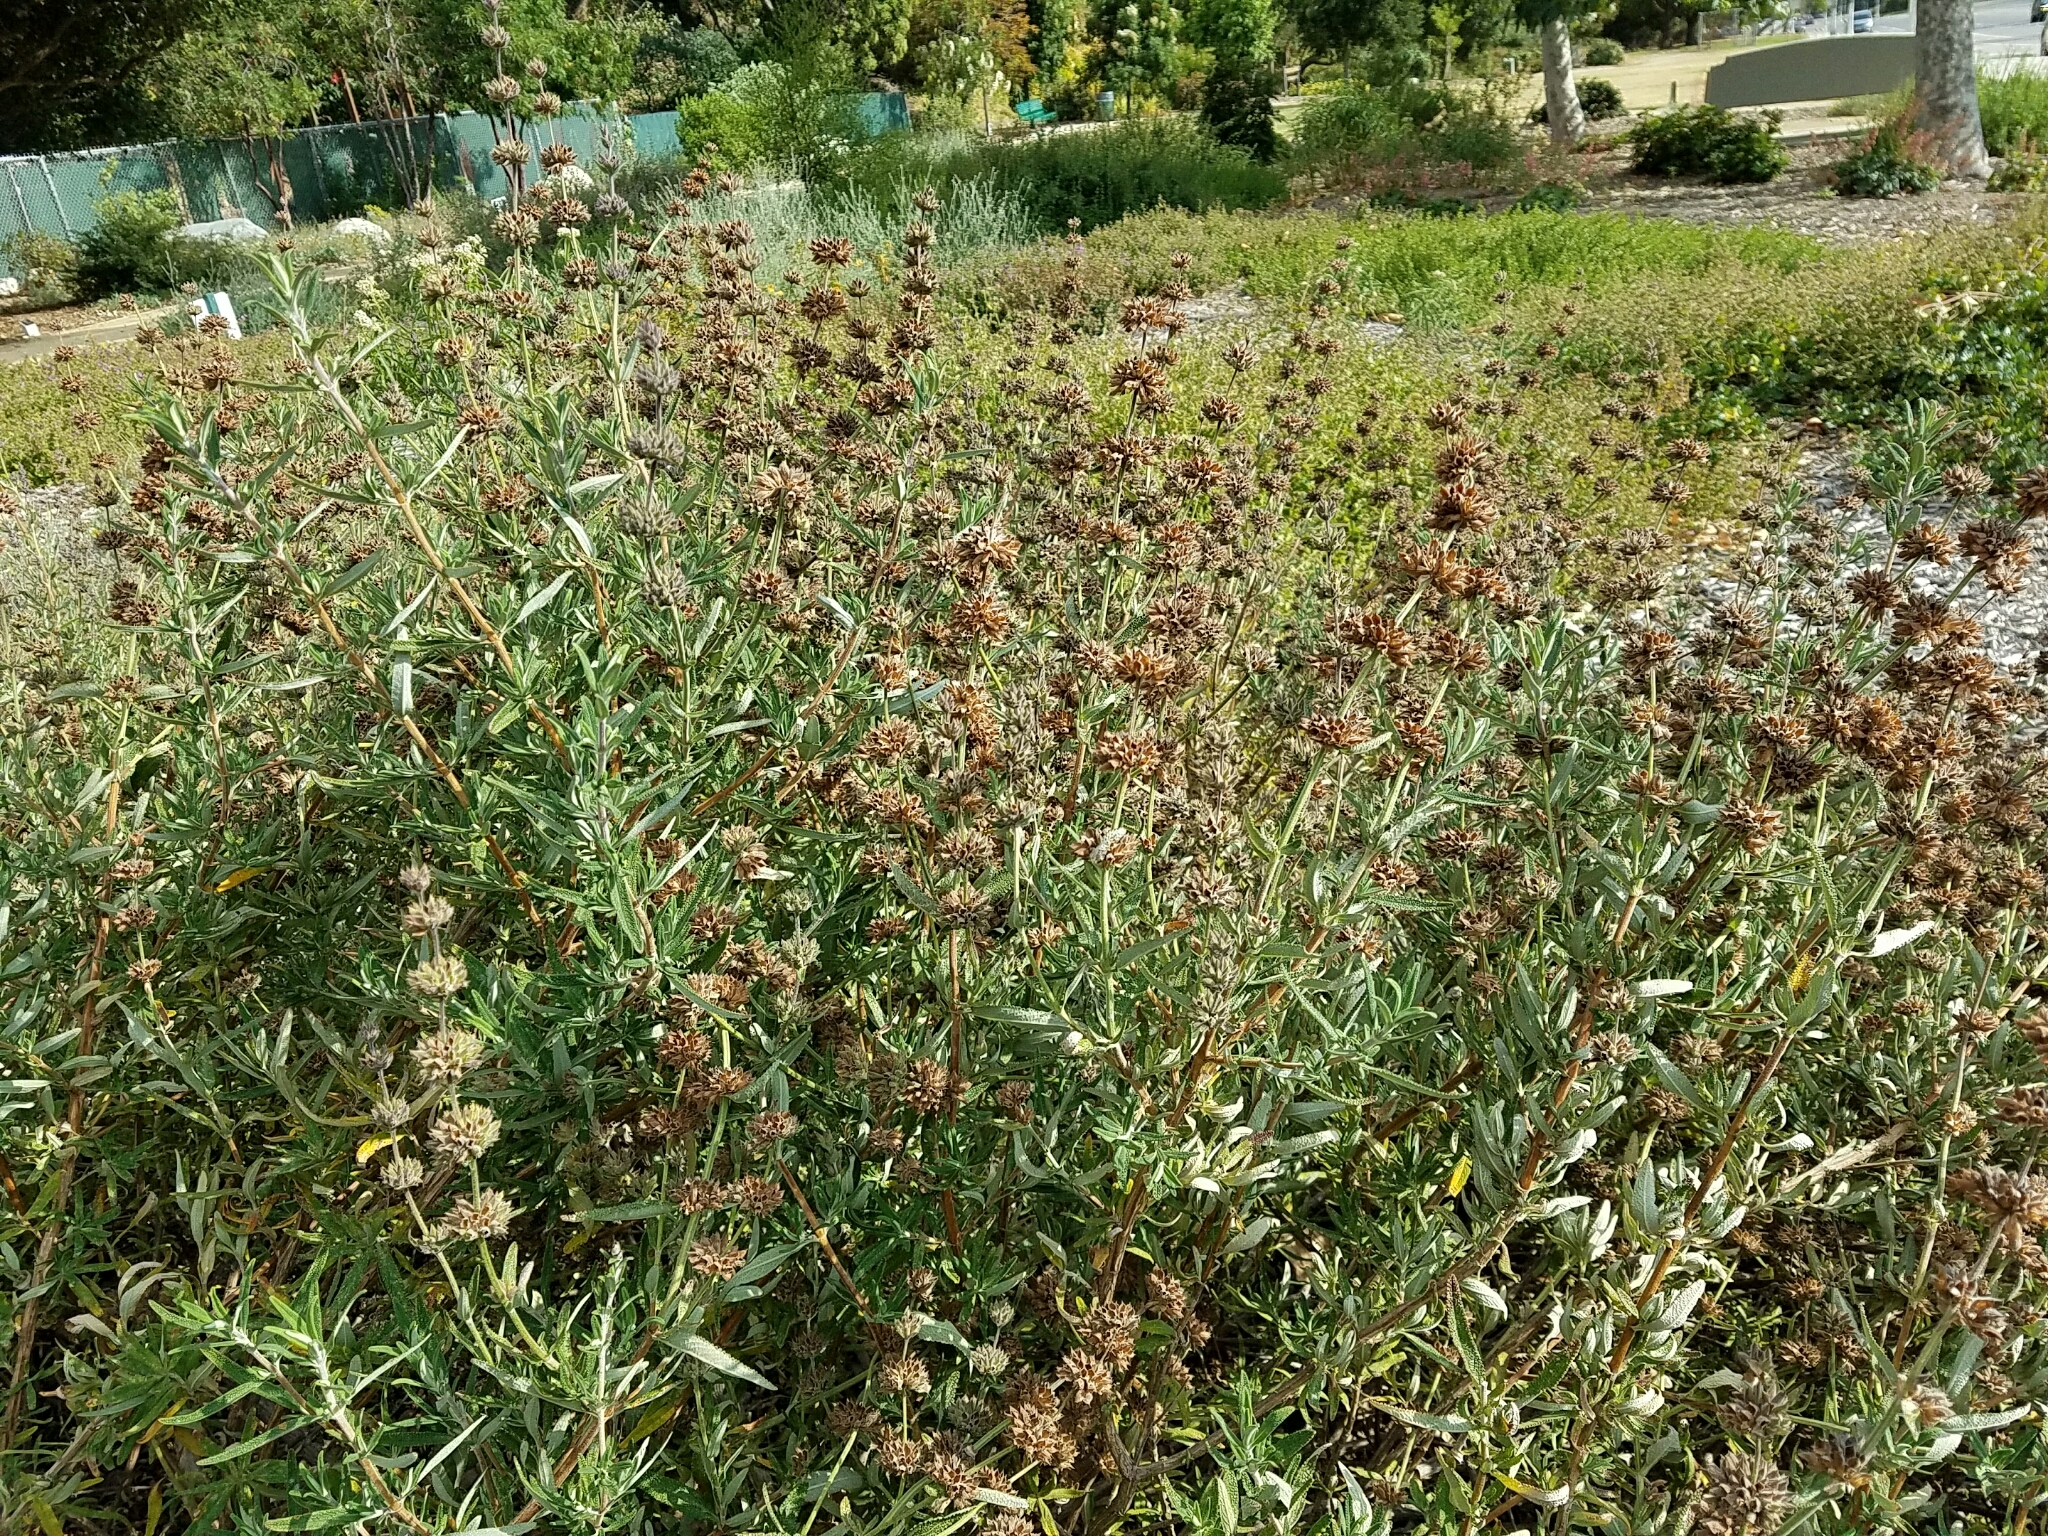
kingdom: Plantae
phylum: Tracheophyta
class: Magnoliopsida
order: Lamiales
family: Lamiaceae
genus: Salvia
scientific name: Salvia mellifera
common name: Black sage
